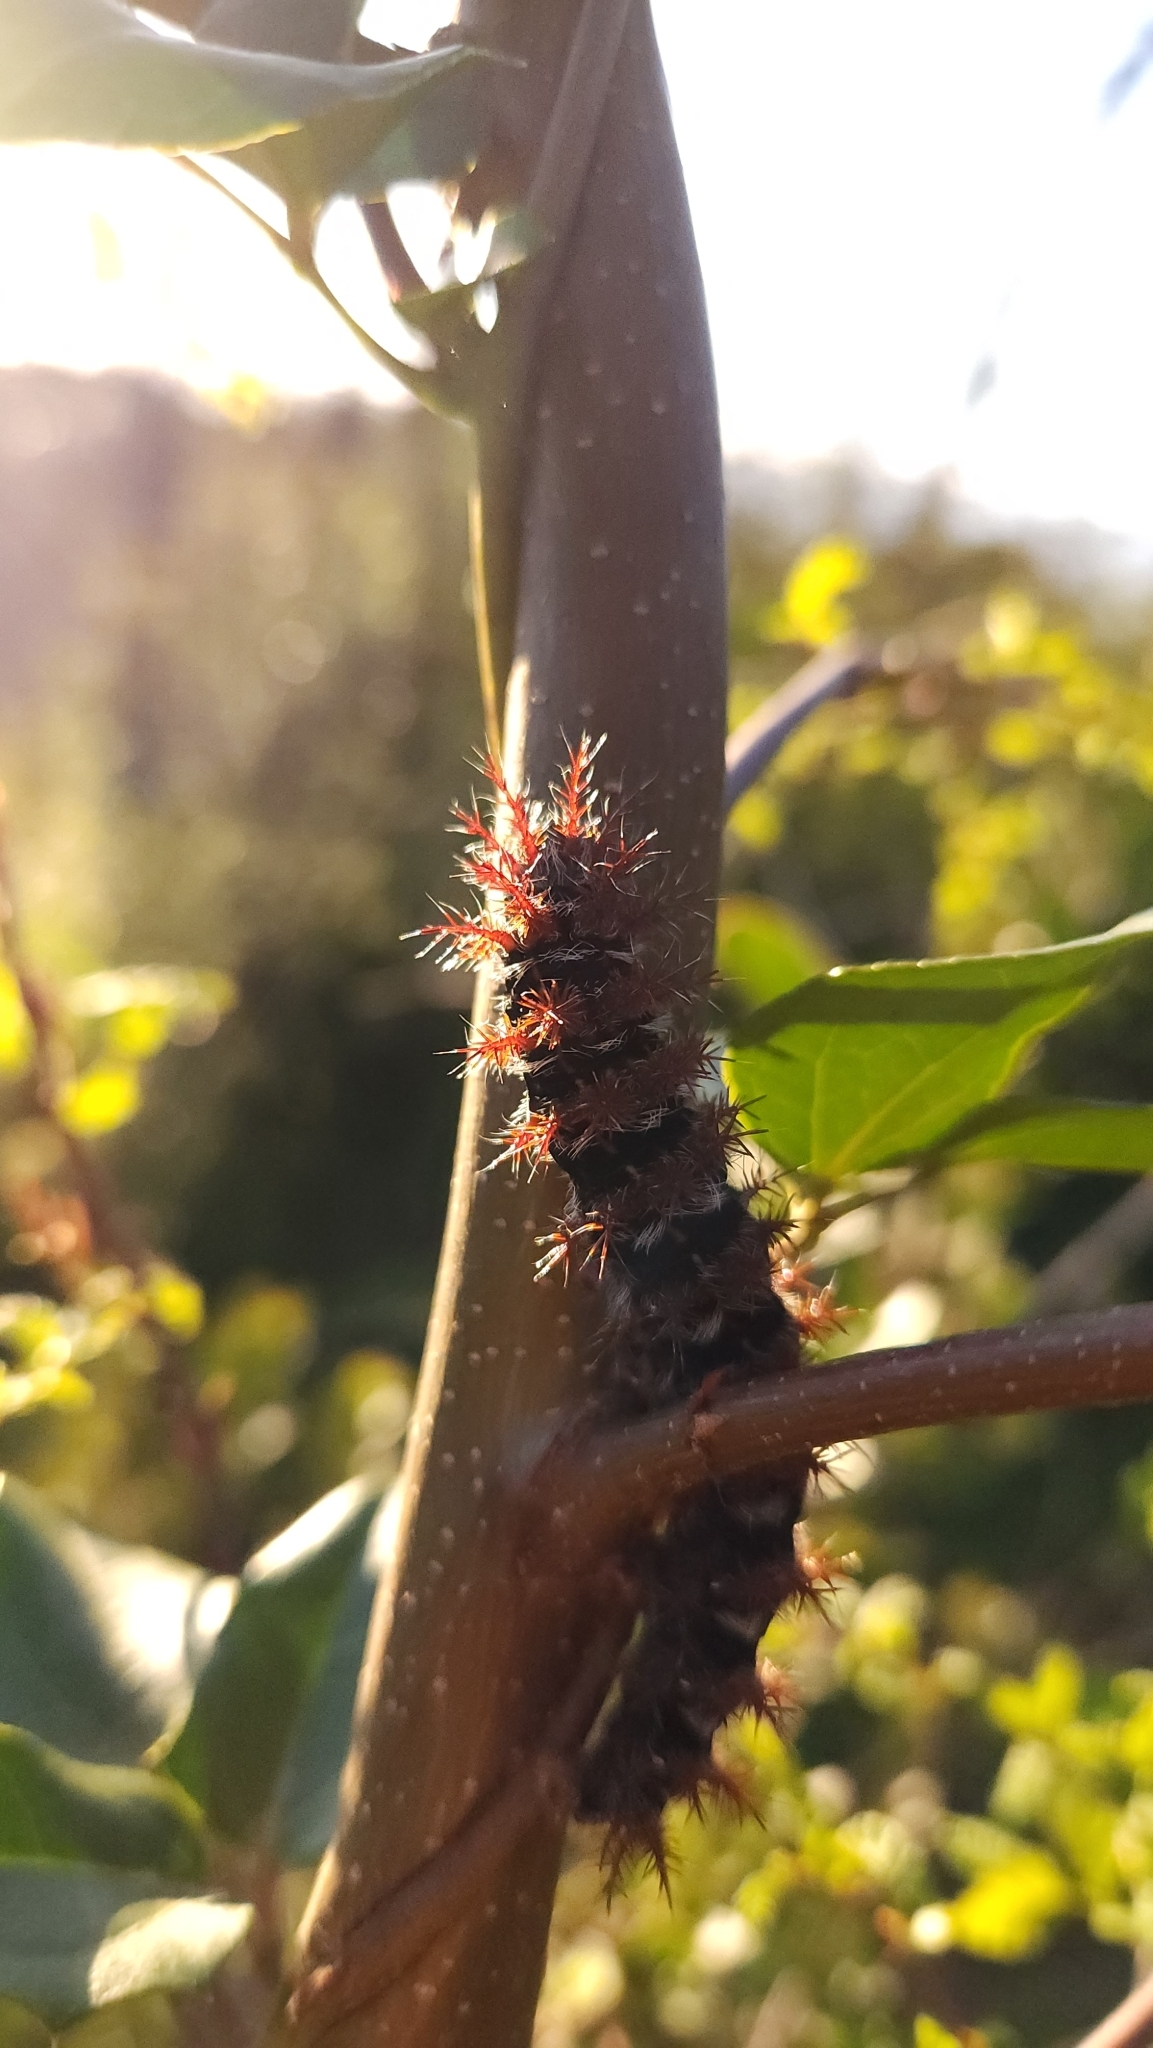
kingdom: Animalia
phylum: Arthropoda
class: Insecta
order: Lepidoptera
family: Saturniidae
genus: Ormiscodes
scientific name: Ormiscodes cinnamomea
